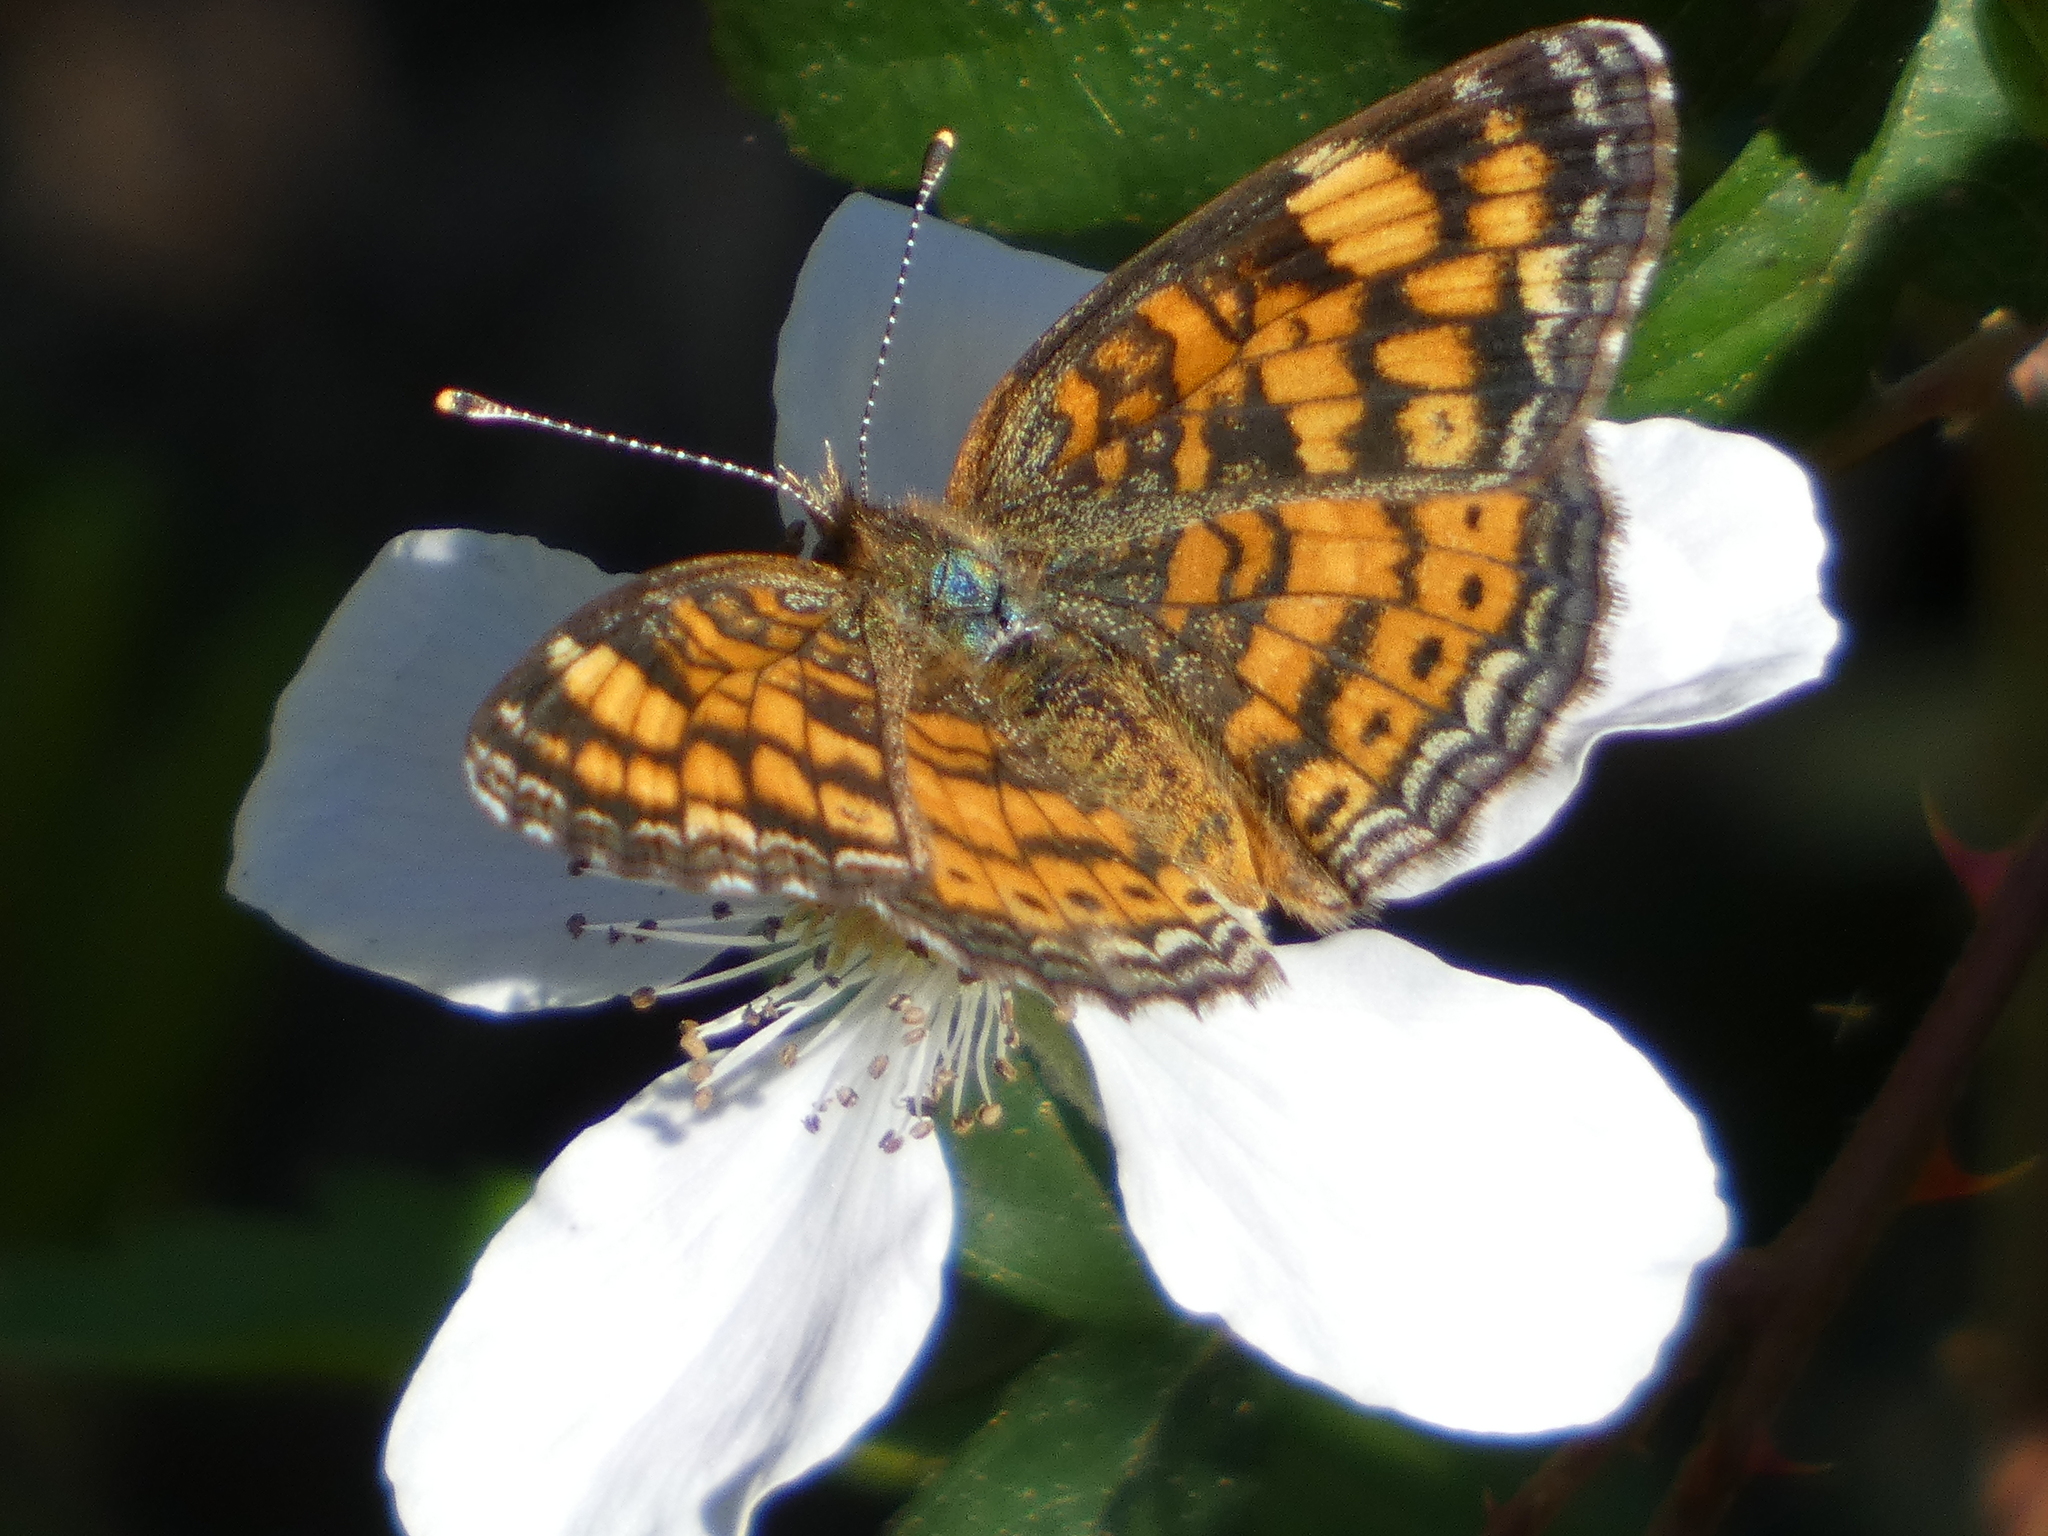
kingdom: Animalia
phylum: Arthropoda
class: Insecta
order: Lepidoptera
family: Nymphalidae
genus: Phyciodes
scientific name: Phyciodes tharos
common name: Pearl crescent
